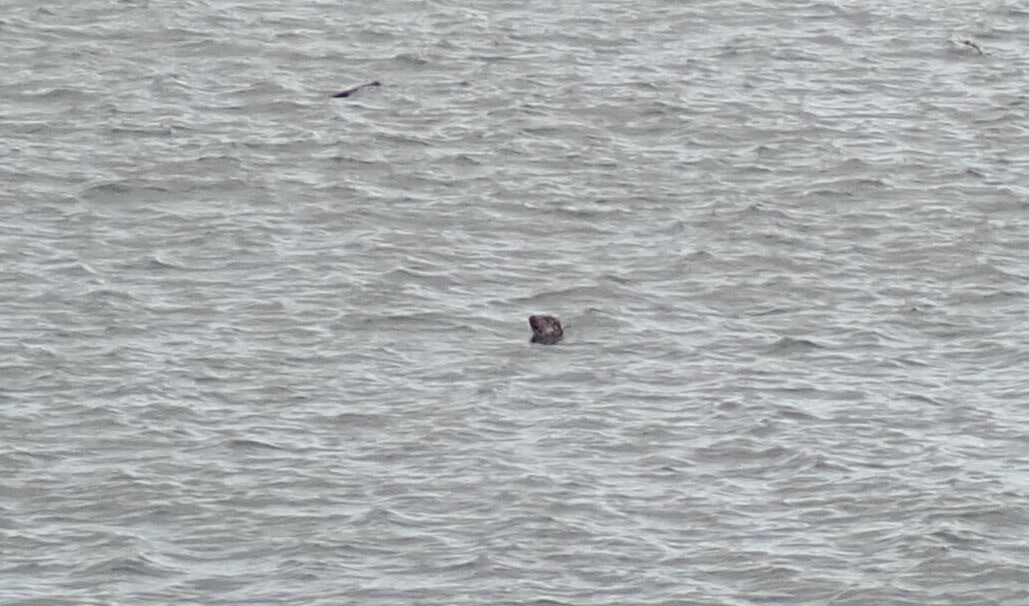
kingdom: Animalia
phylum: Chordata
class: Mammalia
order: Carnivora
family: Phocidae
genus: Phoca
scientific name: Phoca vitulina
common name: Harbor seal
